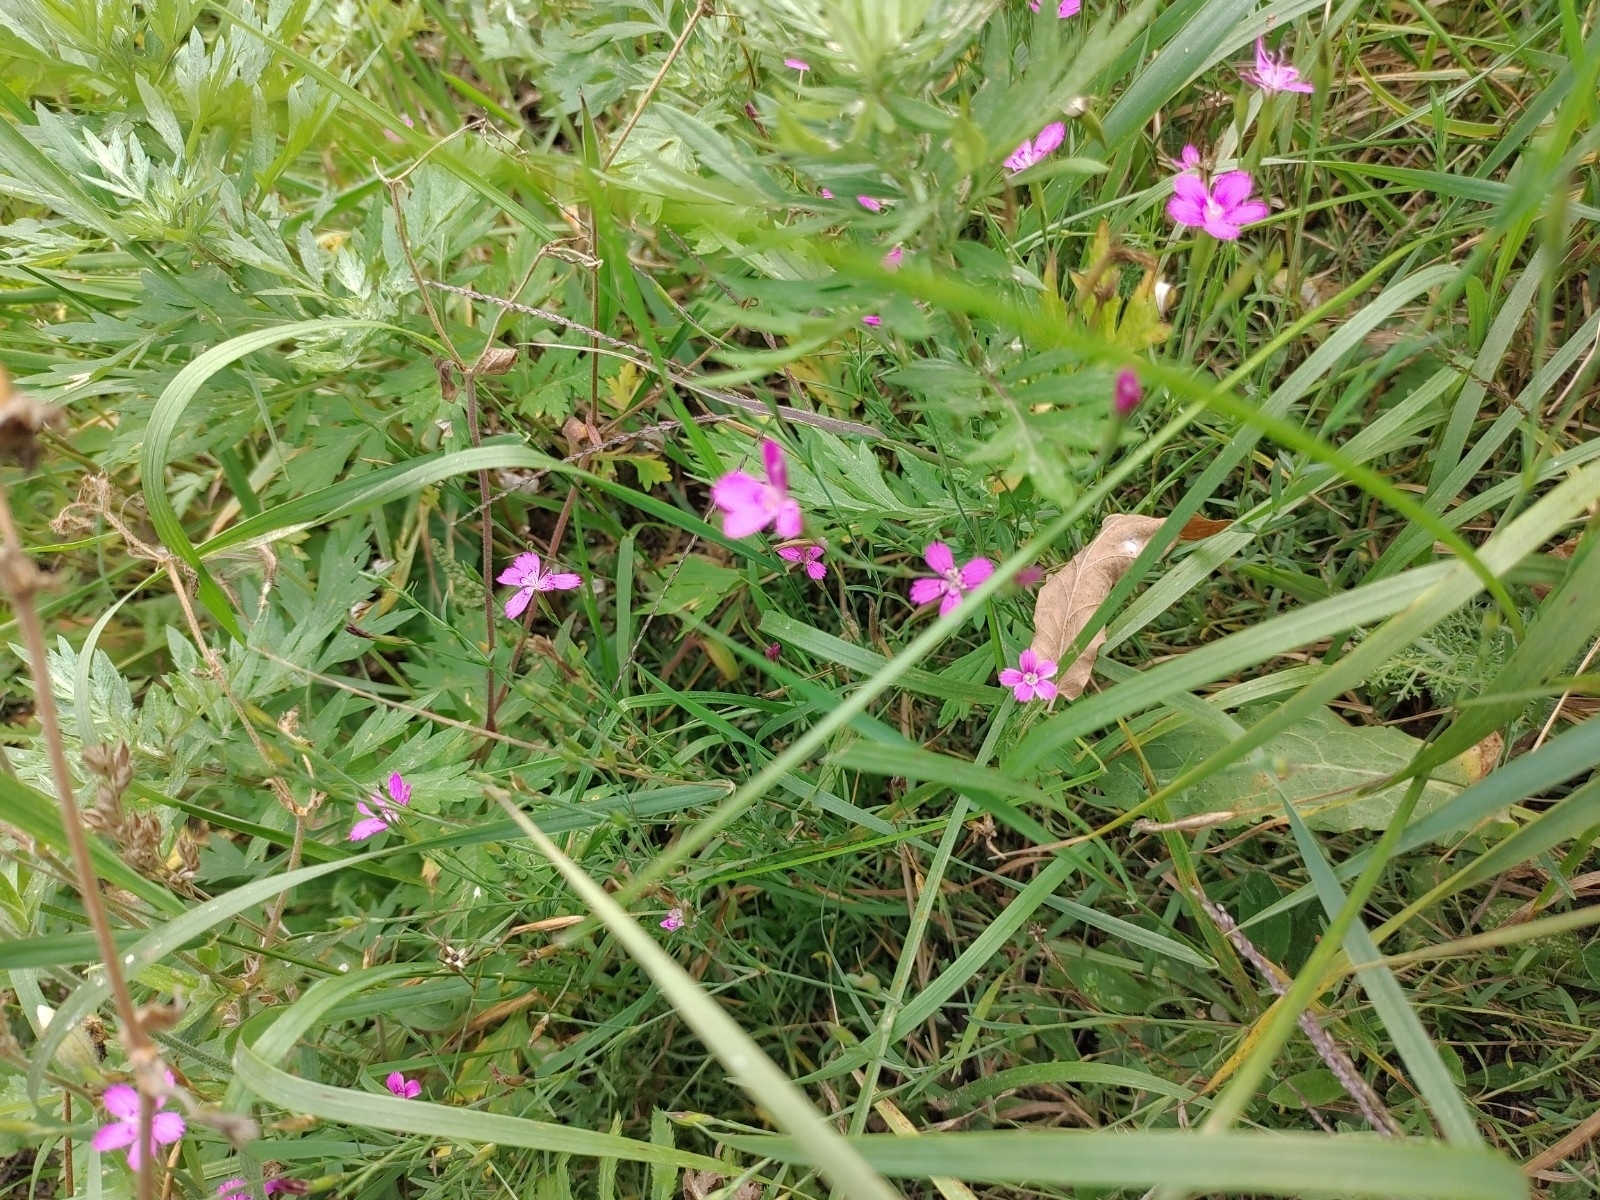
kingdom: Plantae
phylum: Tracheophyta
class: Magnoliopsida
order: Caryophyllales
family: Caryophyllaceae
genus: Dianthus
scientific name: Dianthus deltoides
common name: Maiden pink
